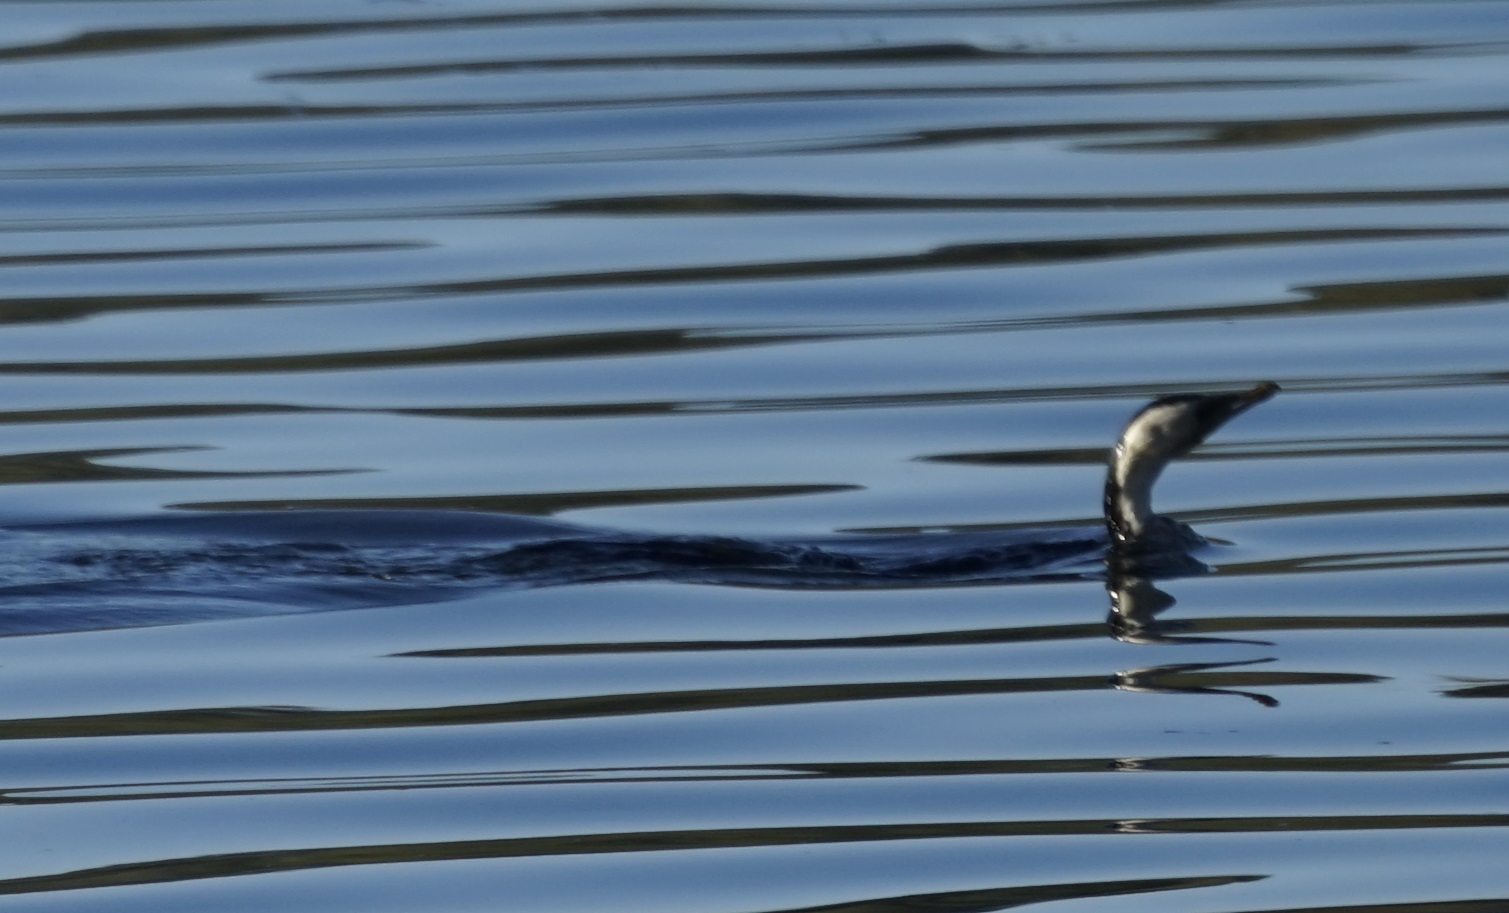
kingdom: Animalia
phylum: Chordata
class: Aves
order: Suliformes
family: Phalacrocoracidae
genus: Microcarbo
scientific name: Microcarbo melanoleucos
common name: Little pied cormorant
